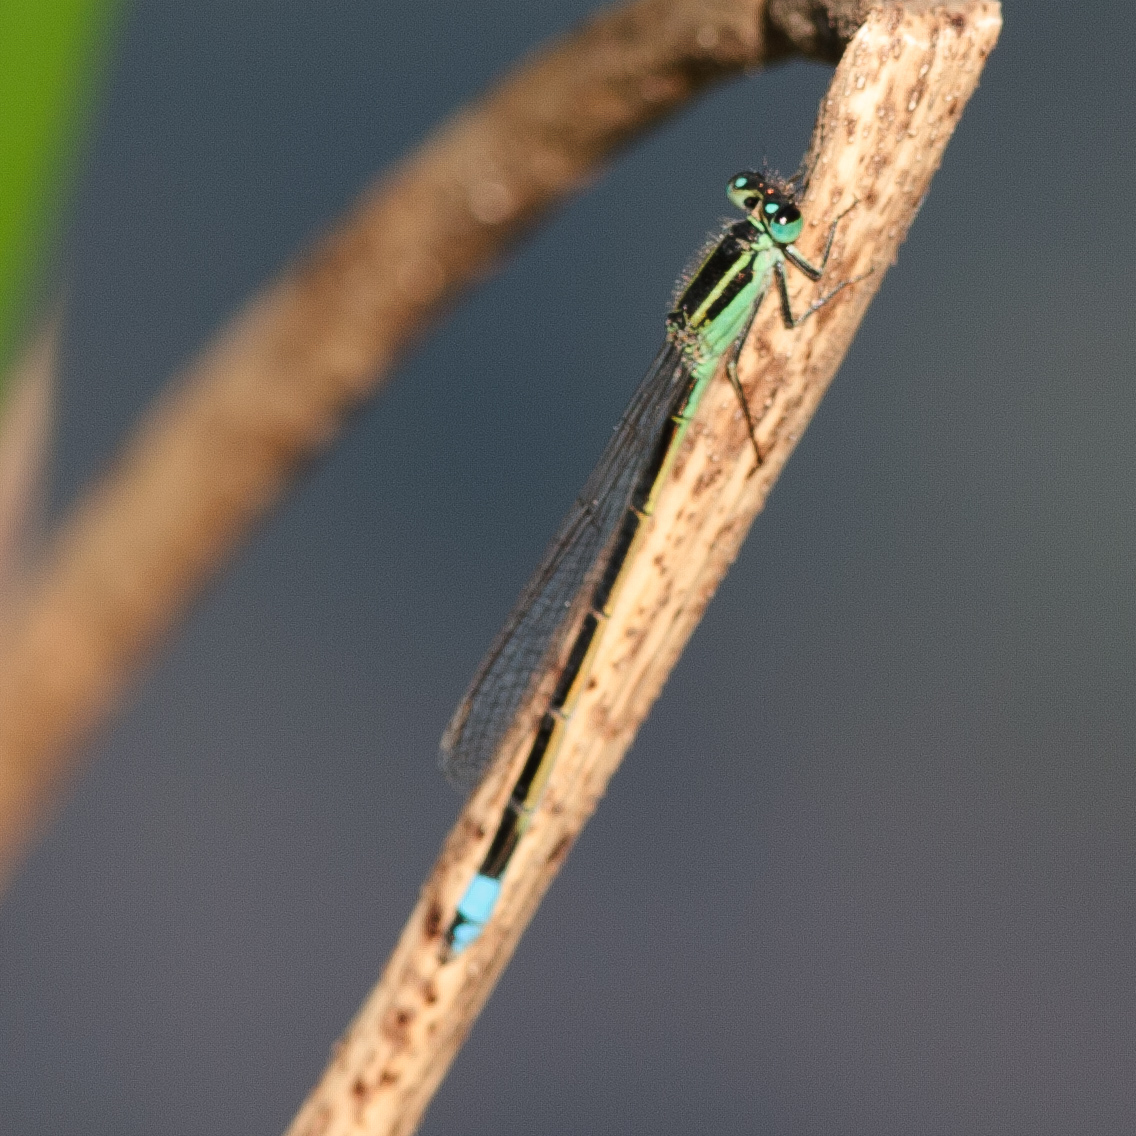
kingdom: Animalia
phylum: Arthropoda
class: Insecta
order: Odonata
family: Coenagrionidae
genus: Ischnura
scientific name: Ischnura ramburii
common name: Rambur's forktail
